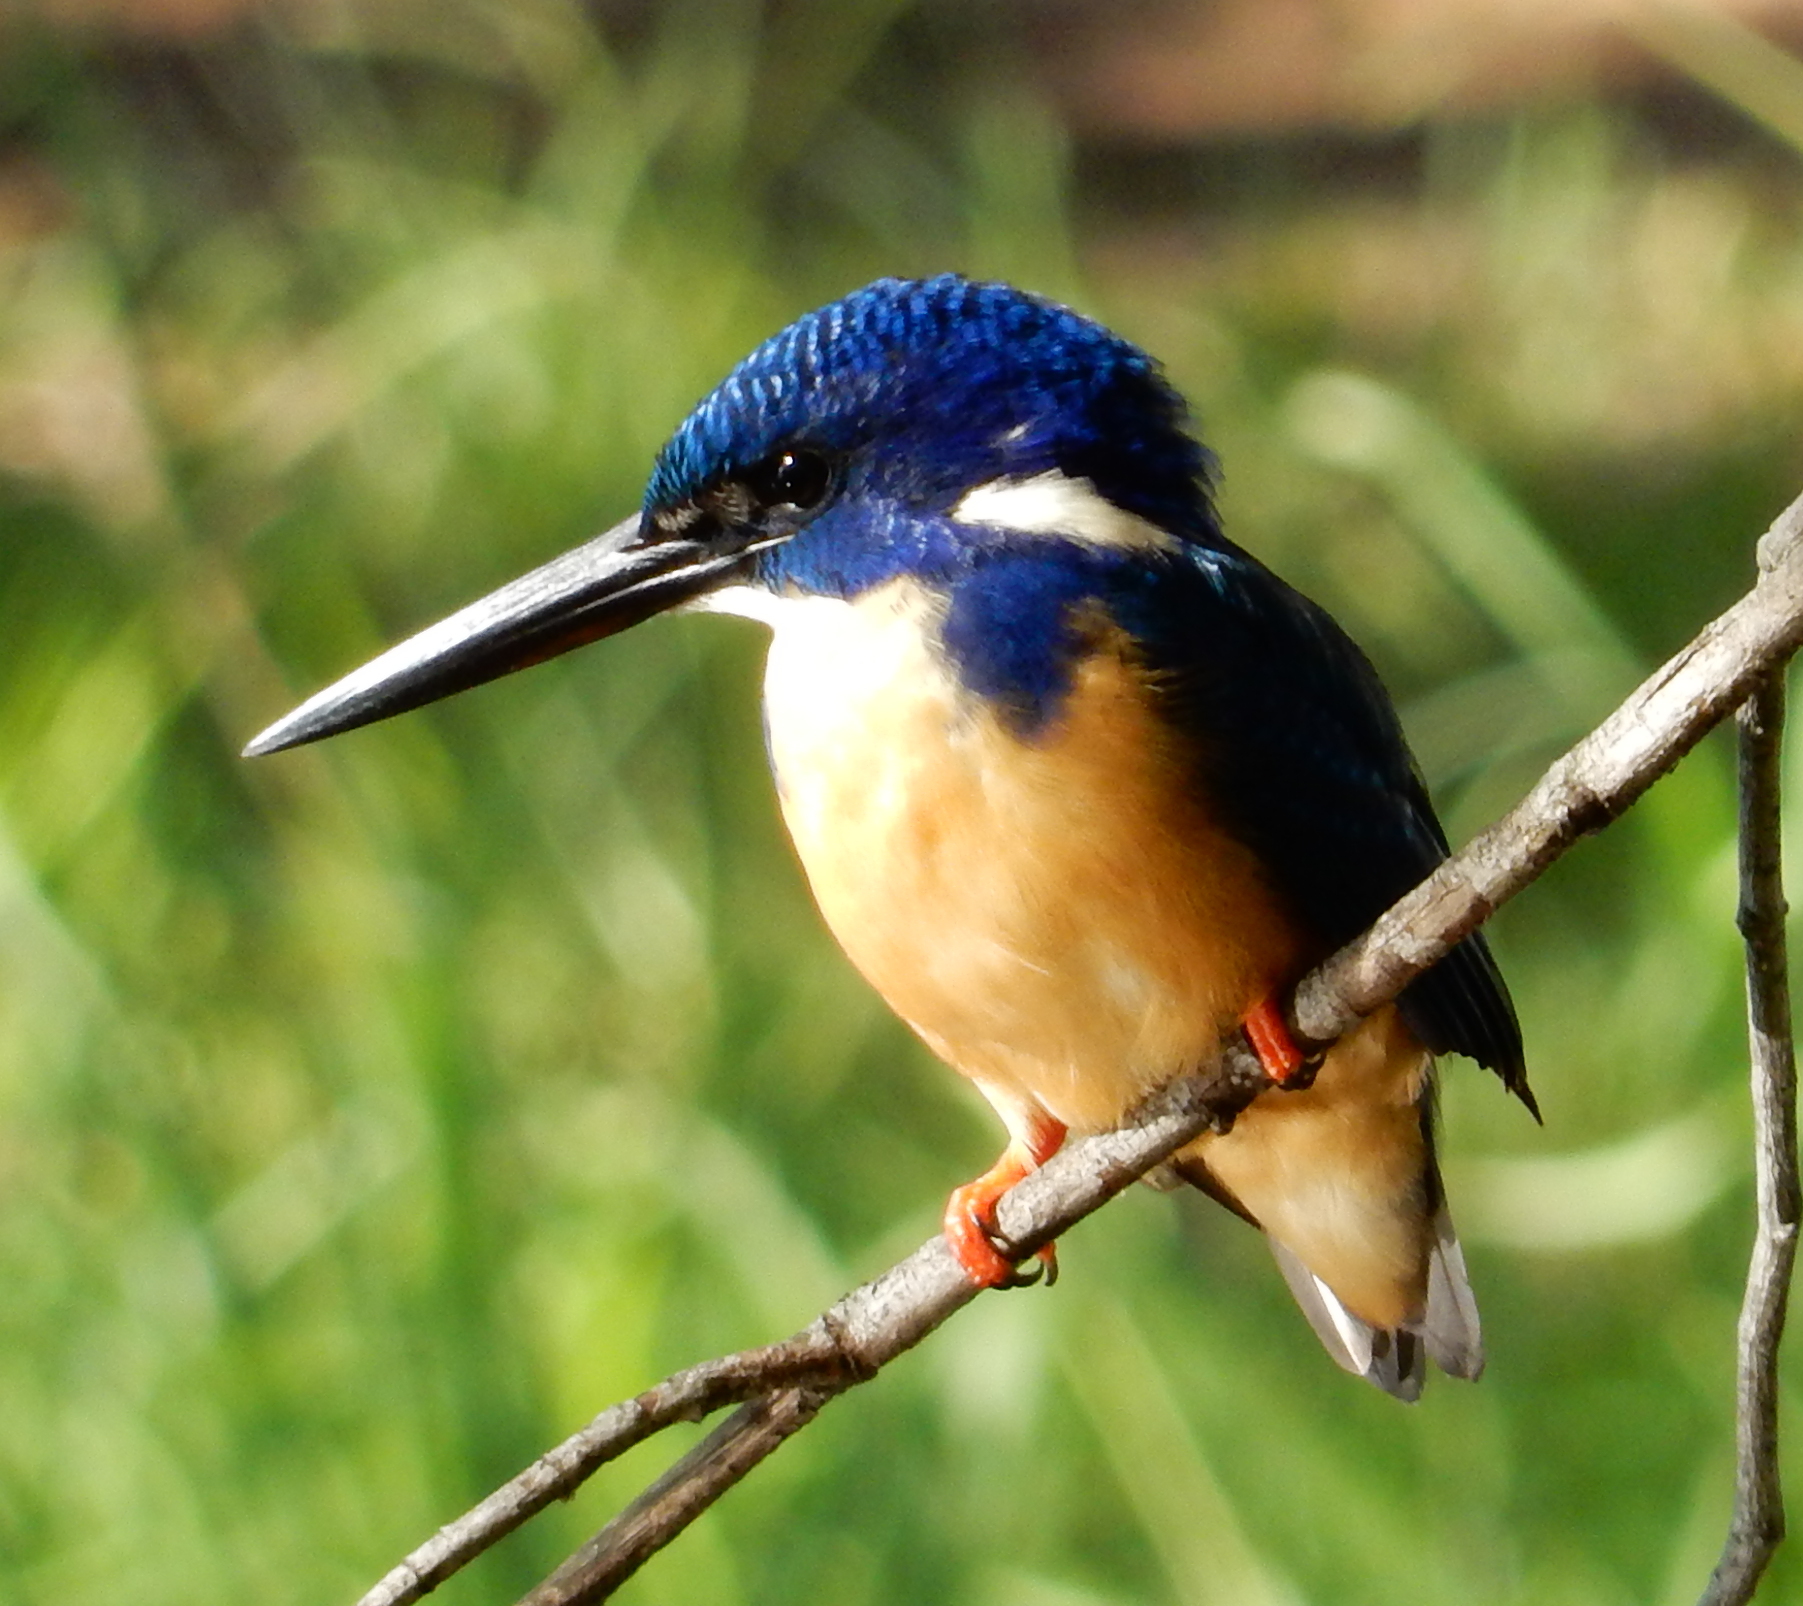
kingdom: Animalia
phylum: Chordata
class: Aves
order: Coraciiformes
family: Alcedinidae
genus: Alcedo
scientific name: Alcedo semitorquata
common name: Half-collared kingfisher
